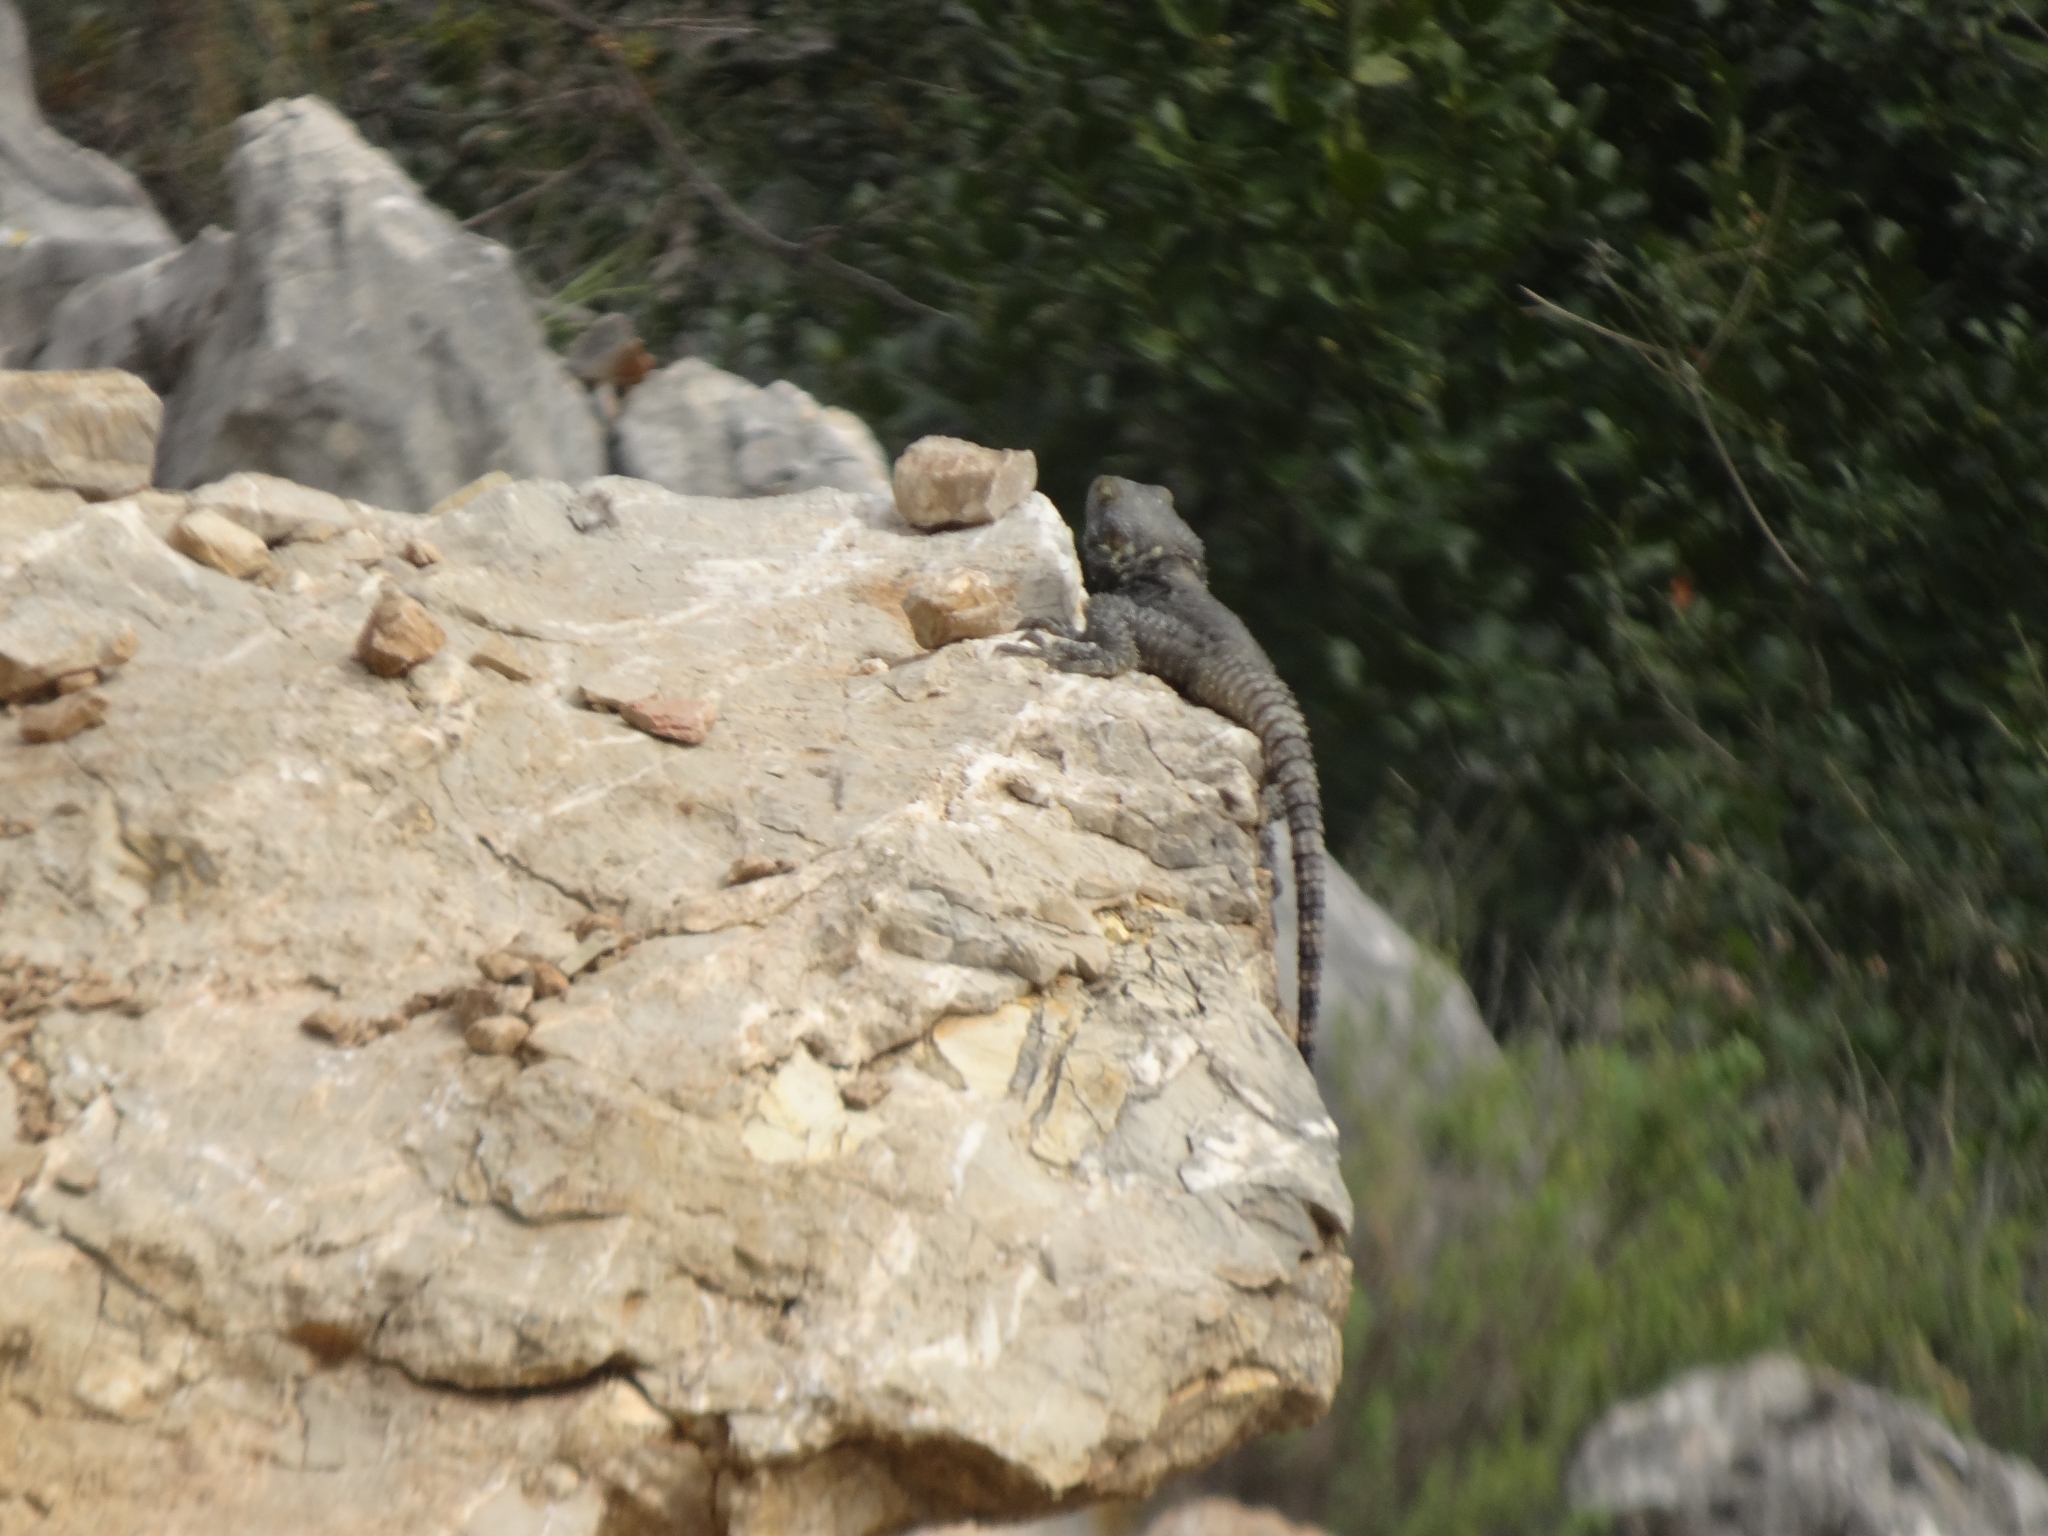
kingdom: Animalia
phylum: Chordata
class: Squamata
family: Agamidae
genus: Stellagama
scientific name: Stellagama stellio
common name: Starred agama
